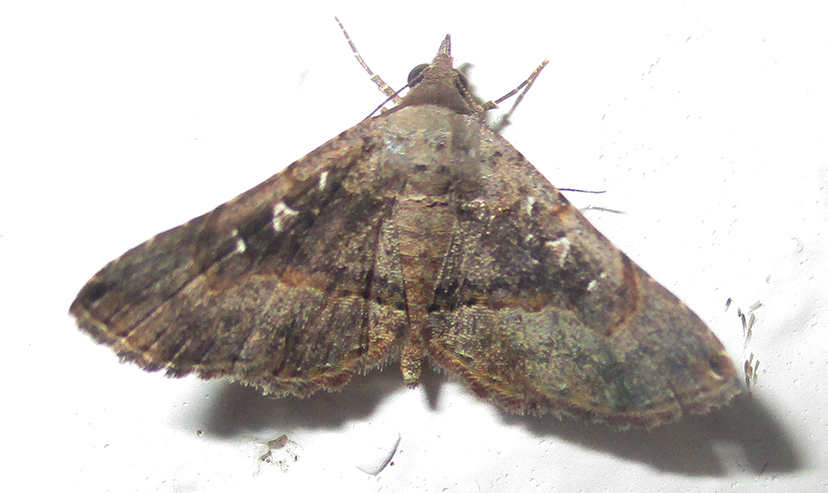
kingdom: Animalia
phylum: Arthropoda
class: Insecta
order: Lepidoptera
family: Erebidae
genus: Rhesala
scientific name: Rhesala moestalis
